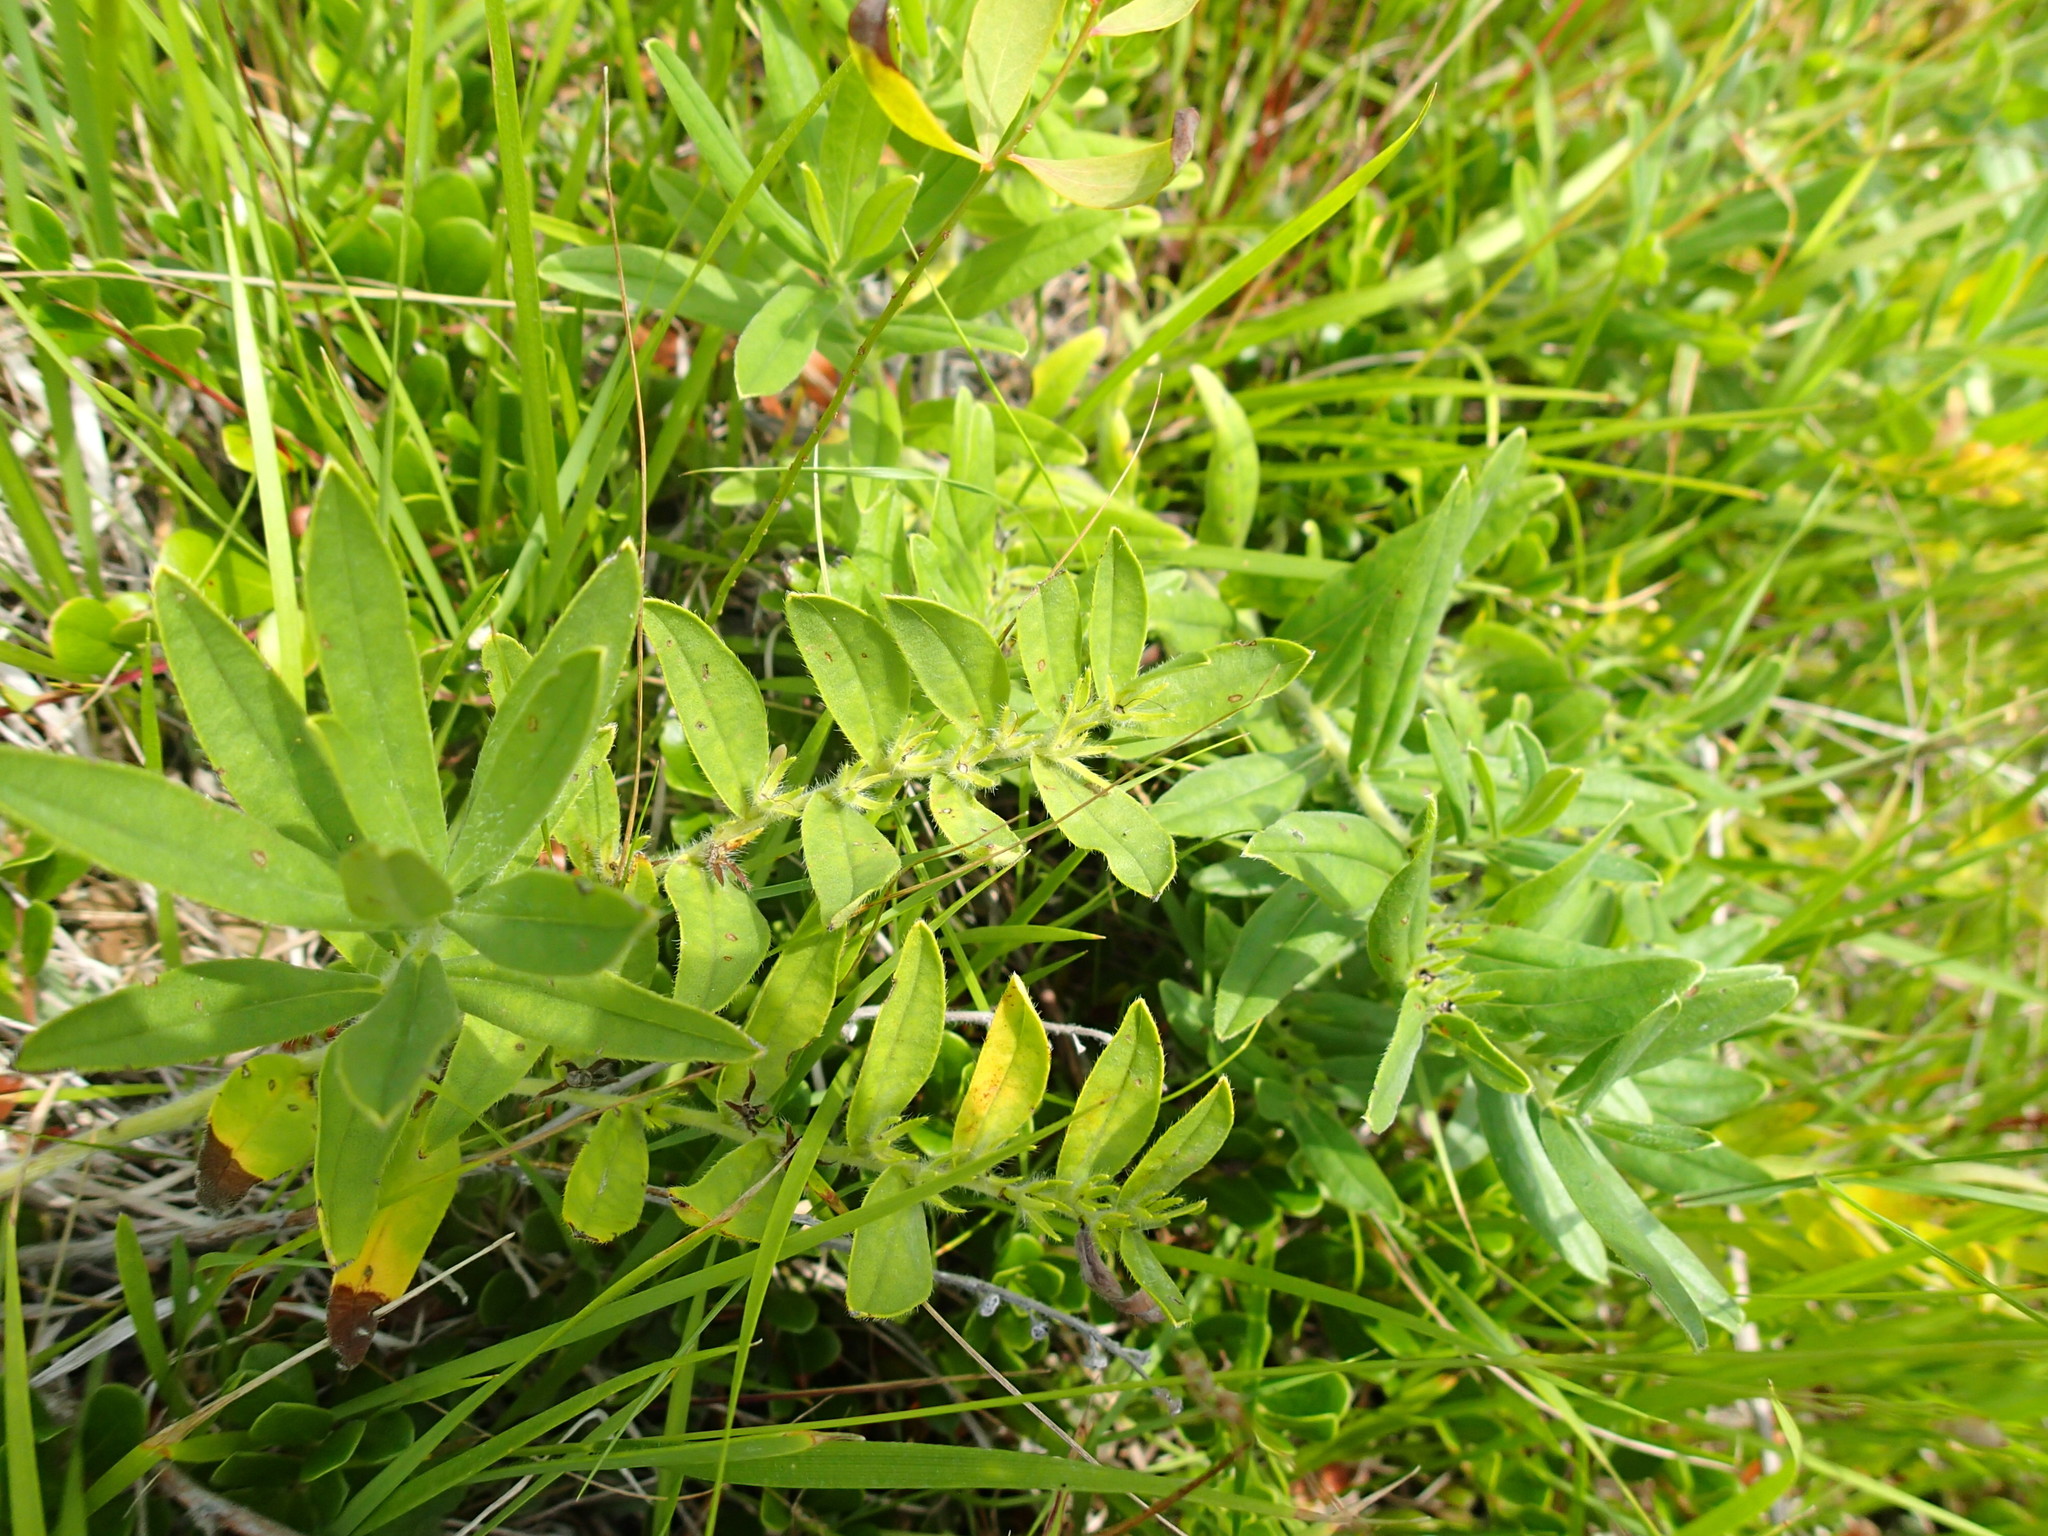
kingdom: Plantae
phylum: Tracheophyta
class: Magnoliopsida
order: Boraginales
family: Boraginaceae
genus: Lithospermum
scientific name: Lithospermum canescens
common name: Hoary puccoon
